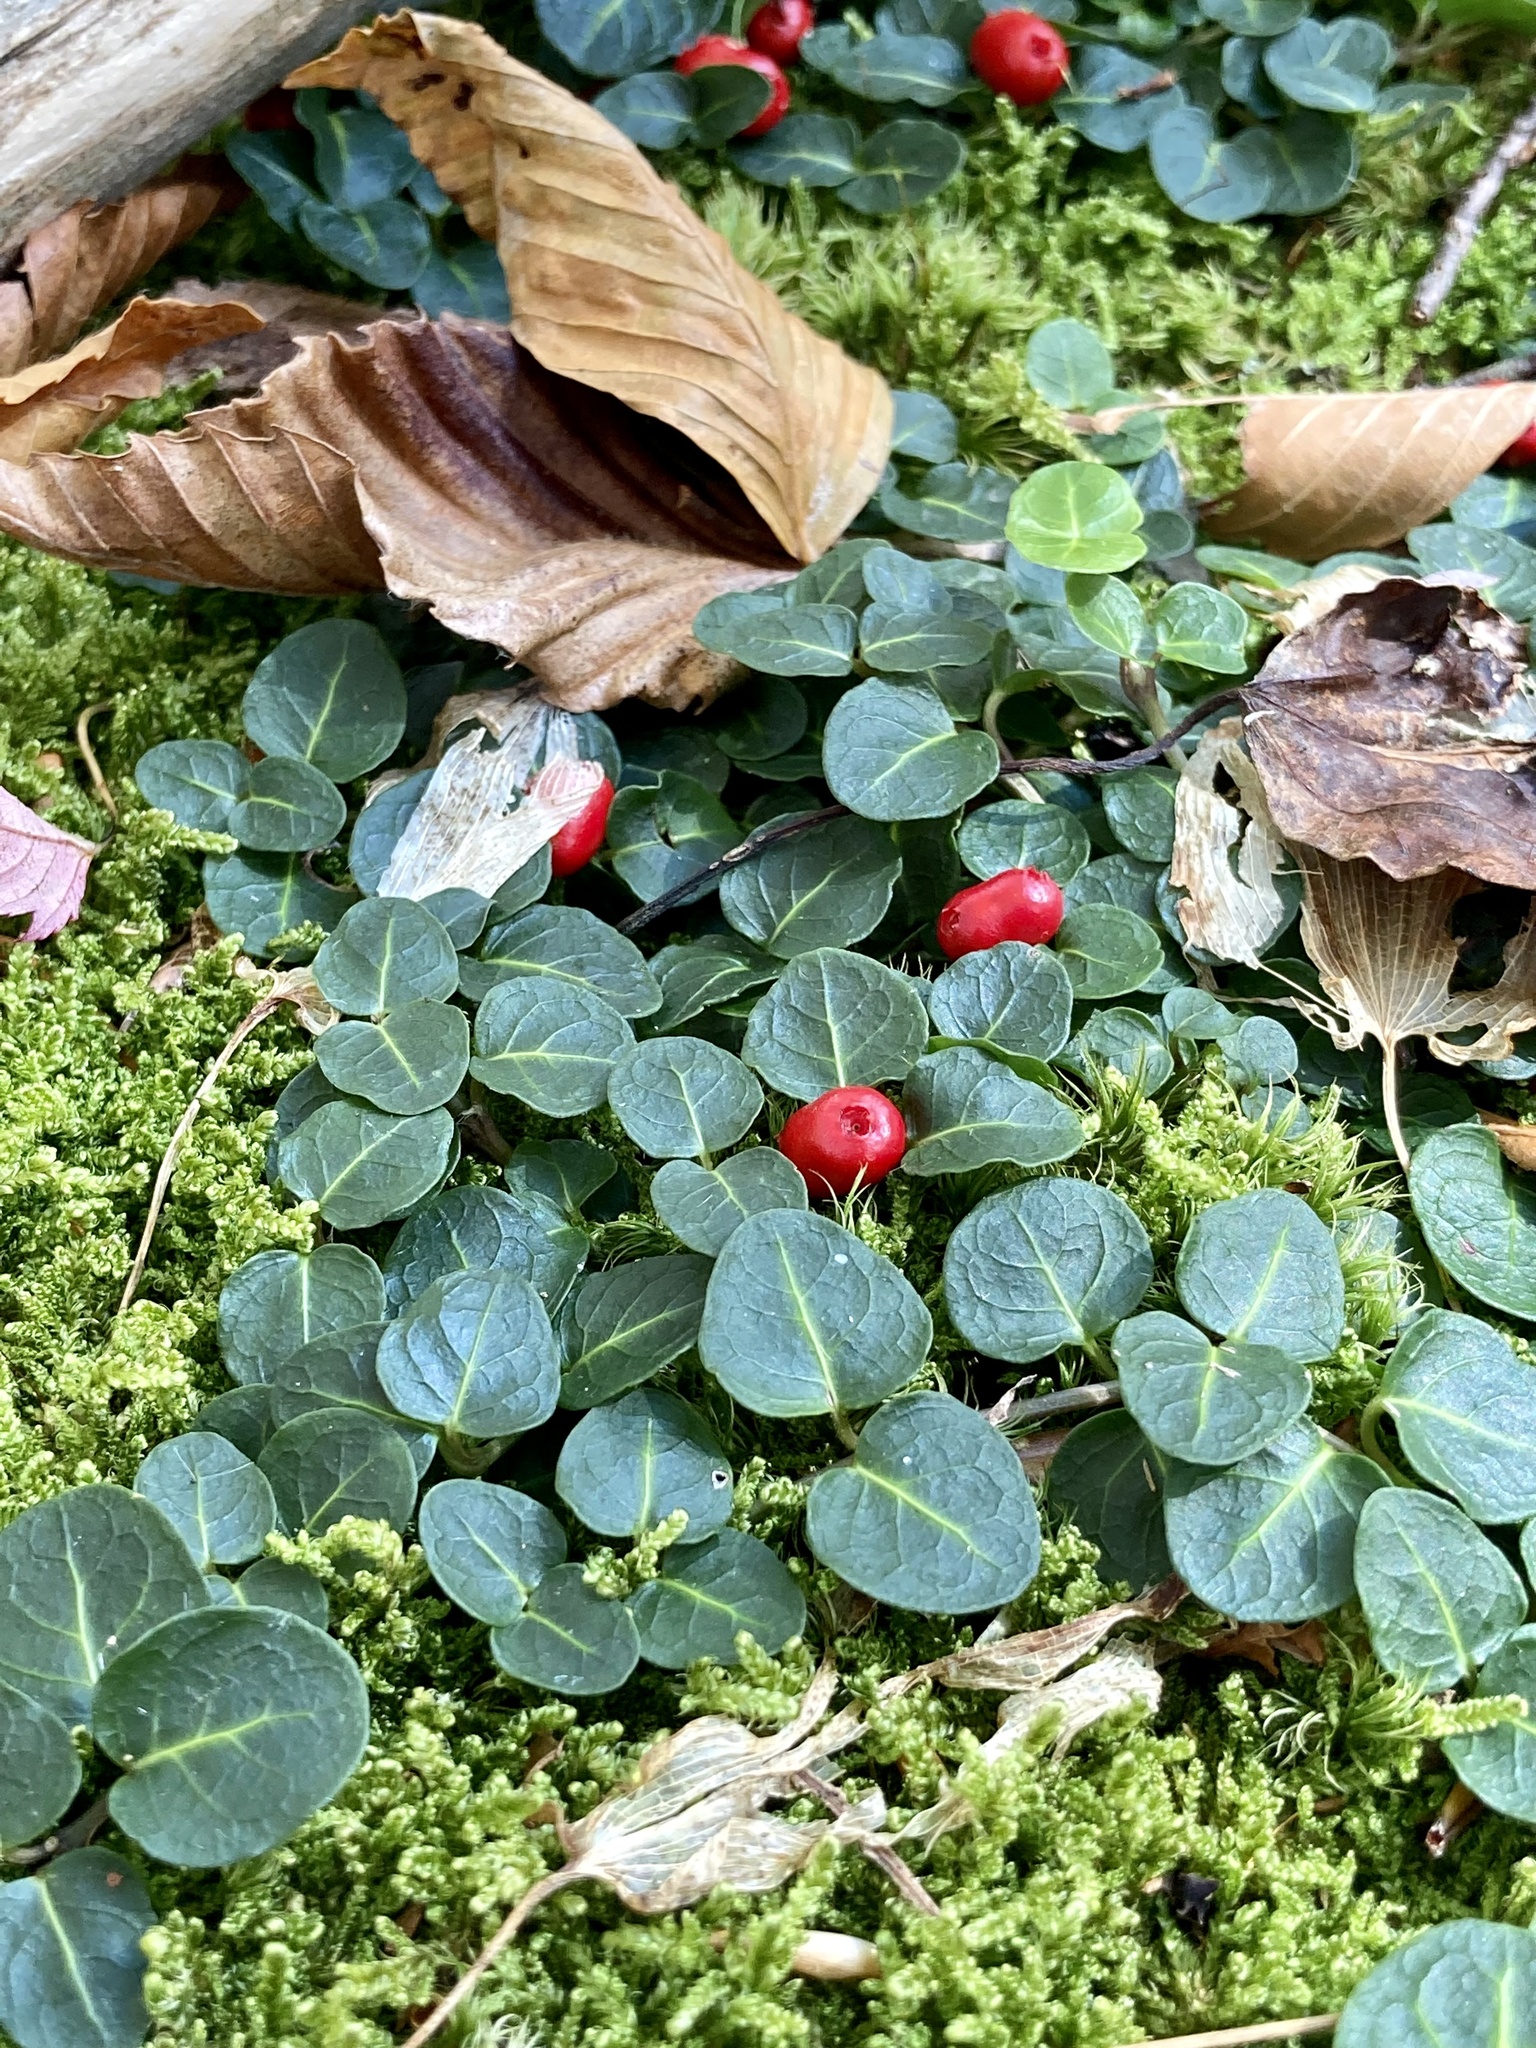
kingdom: Plantae
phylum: Tracheophyta
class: Magnoliopsida
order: Gentianales
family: Rubiaceae
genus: Mitchella
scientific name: Mitchella repens
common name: Partridge-berry
